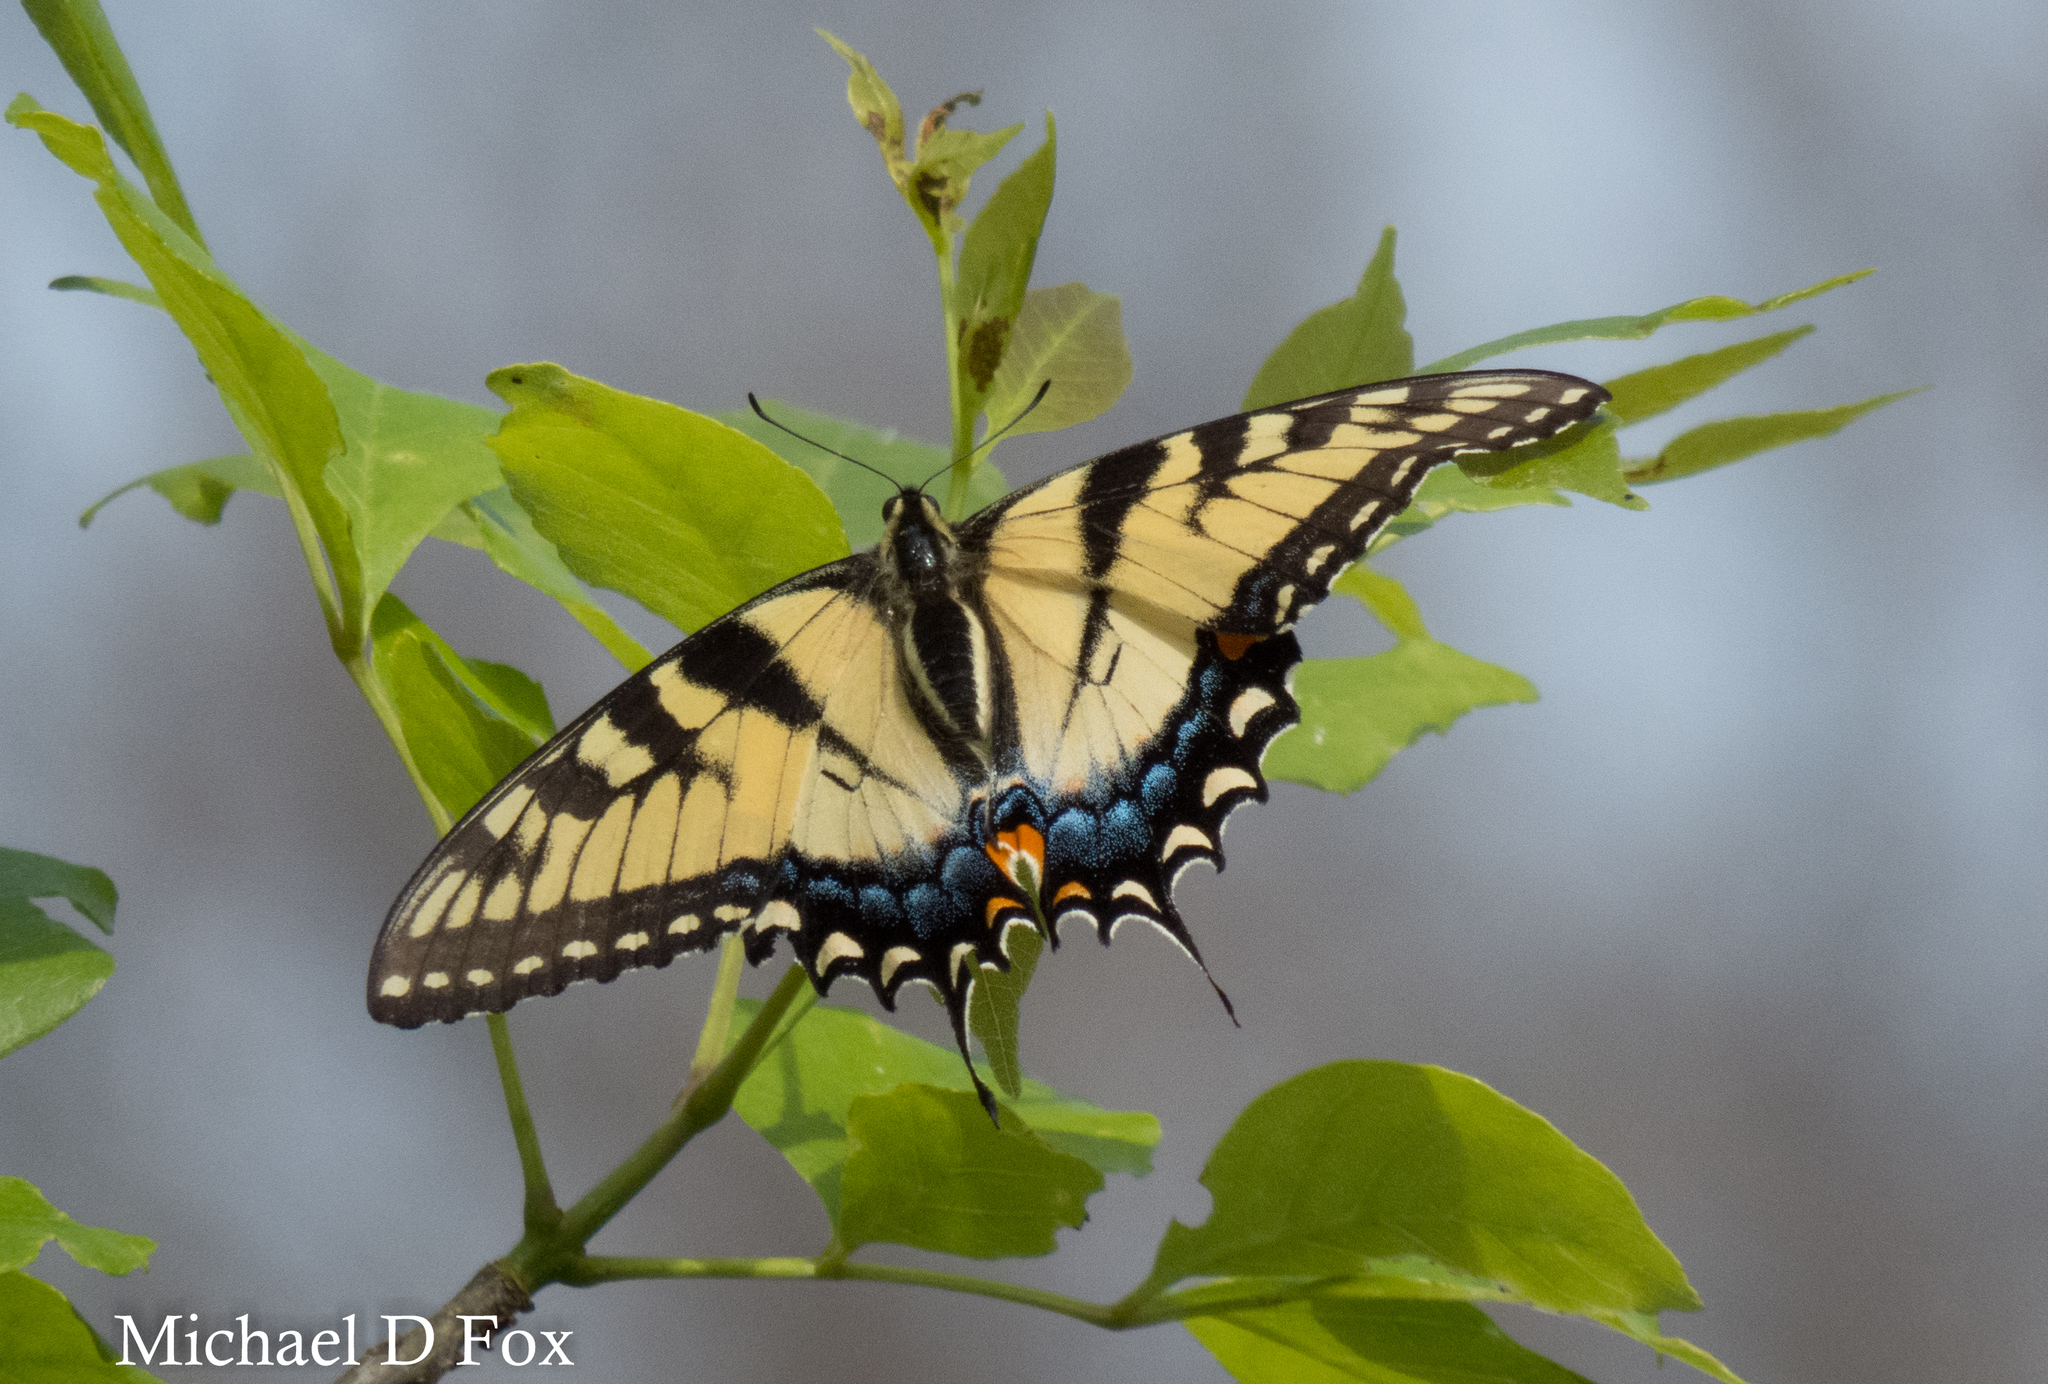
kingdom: Animalia
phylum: Arthropoda
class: Insecta
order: Lepidoptera
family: Papilionidae
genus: Papilio
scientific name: Papilio glaucus
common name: Tiger swallowtail
